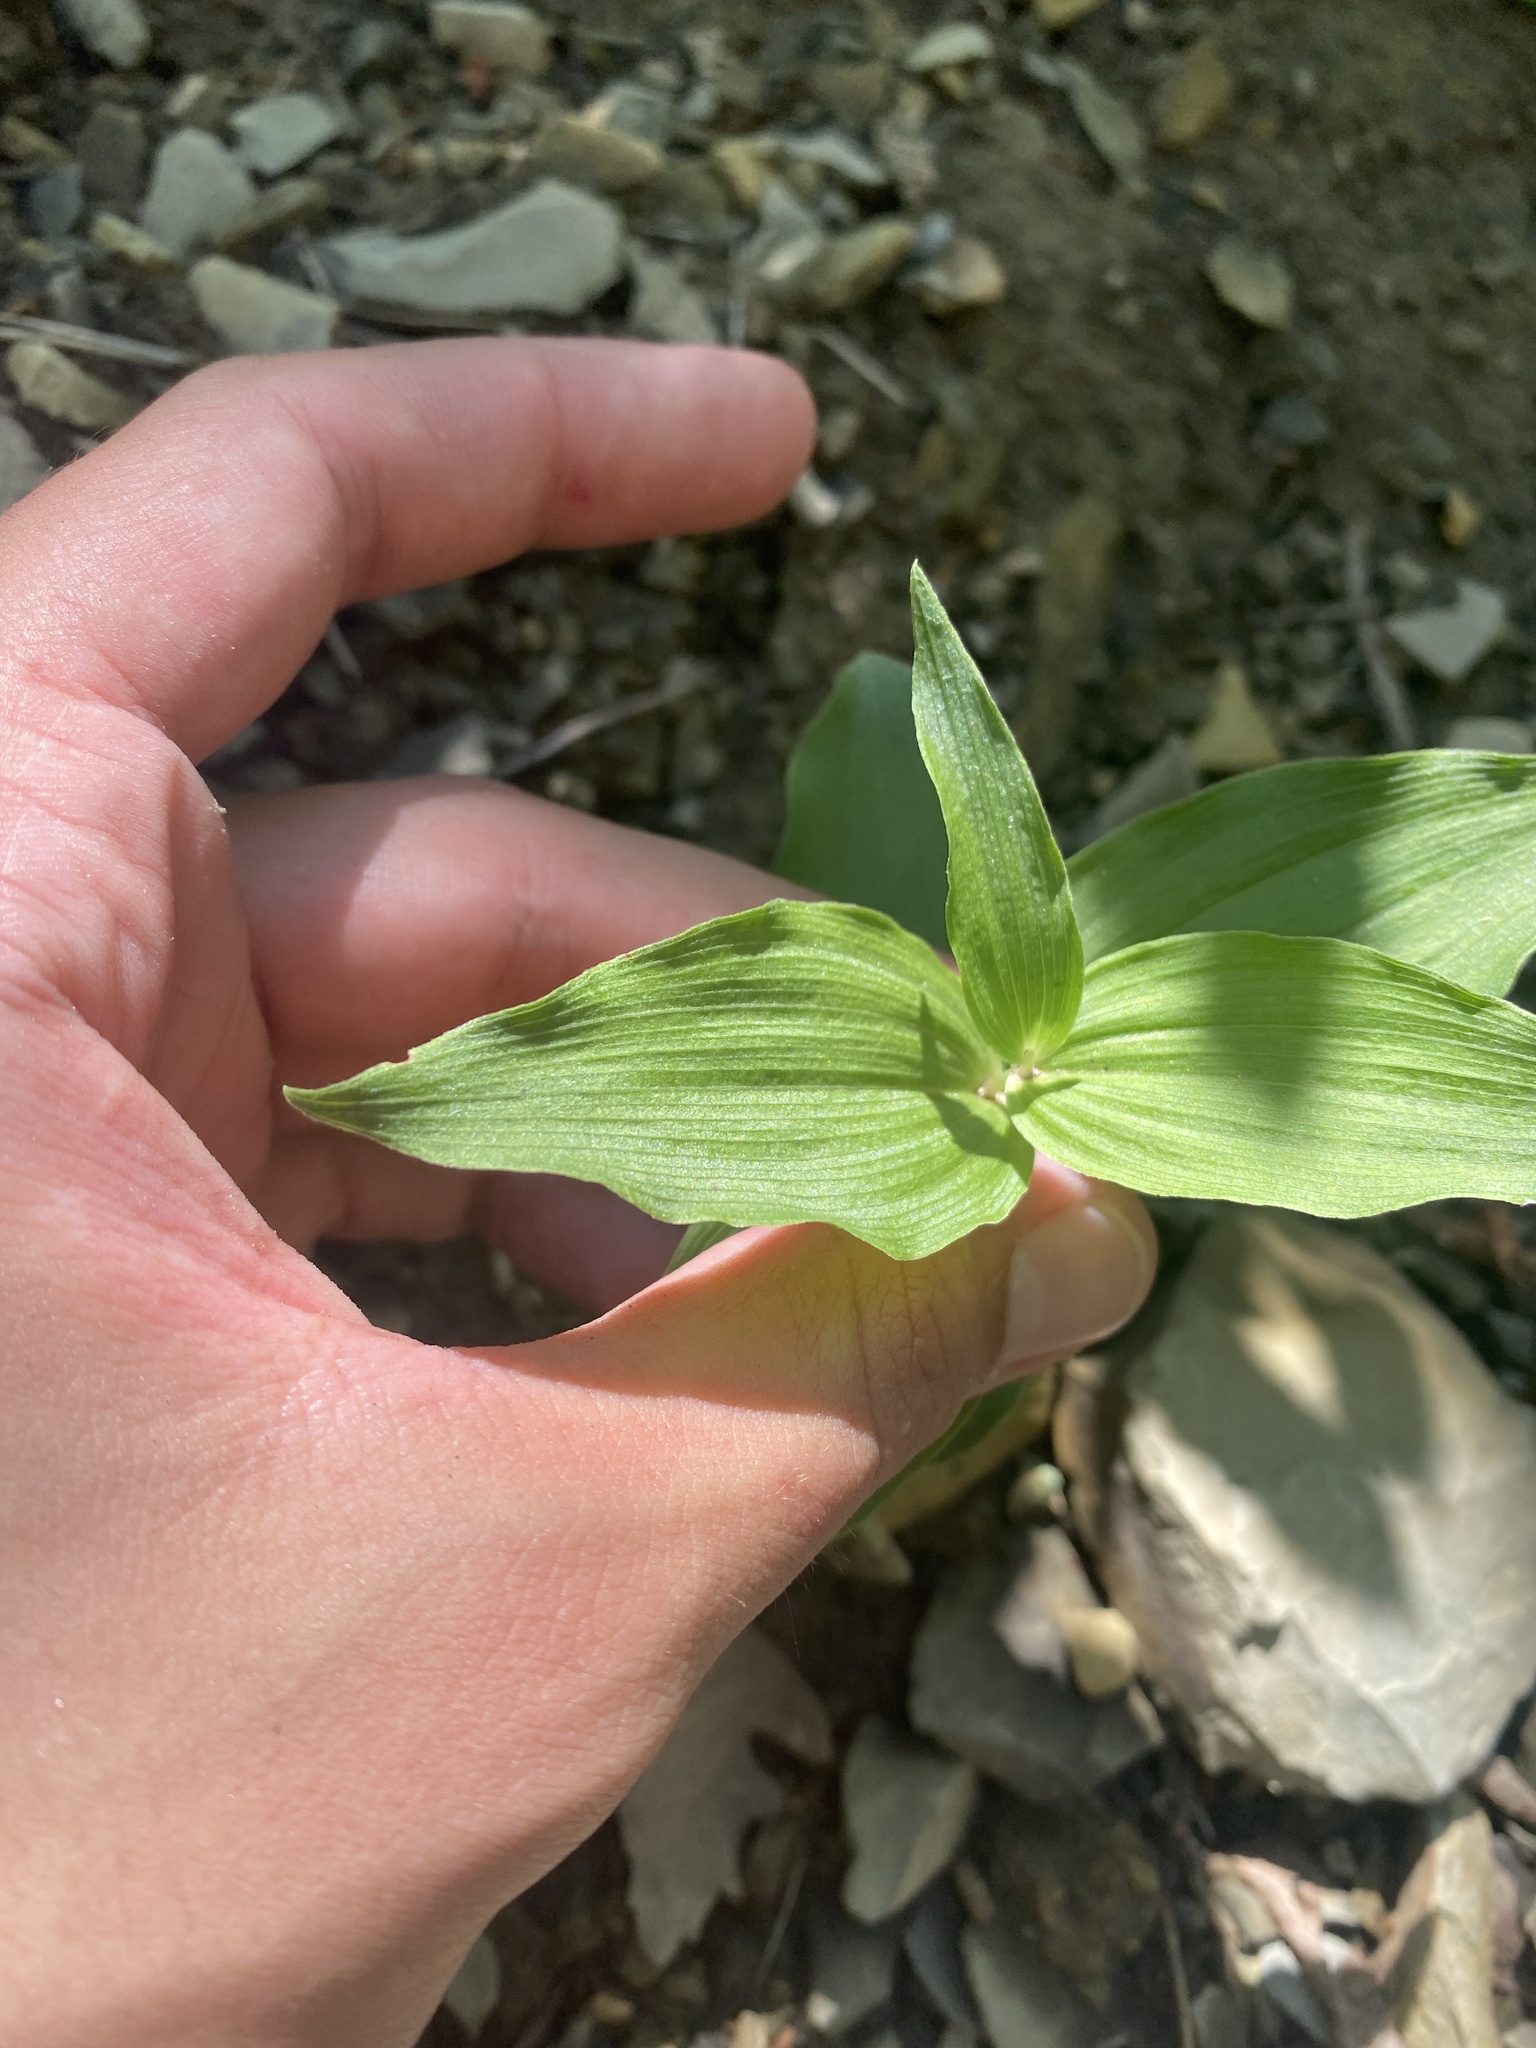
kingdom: Plantae
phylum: Tracheophyta
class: Liliopsida
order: Asparagales
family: Orchidaceae
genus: Epipactis
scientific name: Epipactis helleborine
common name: Broad-leaved helleborine
